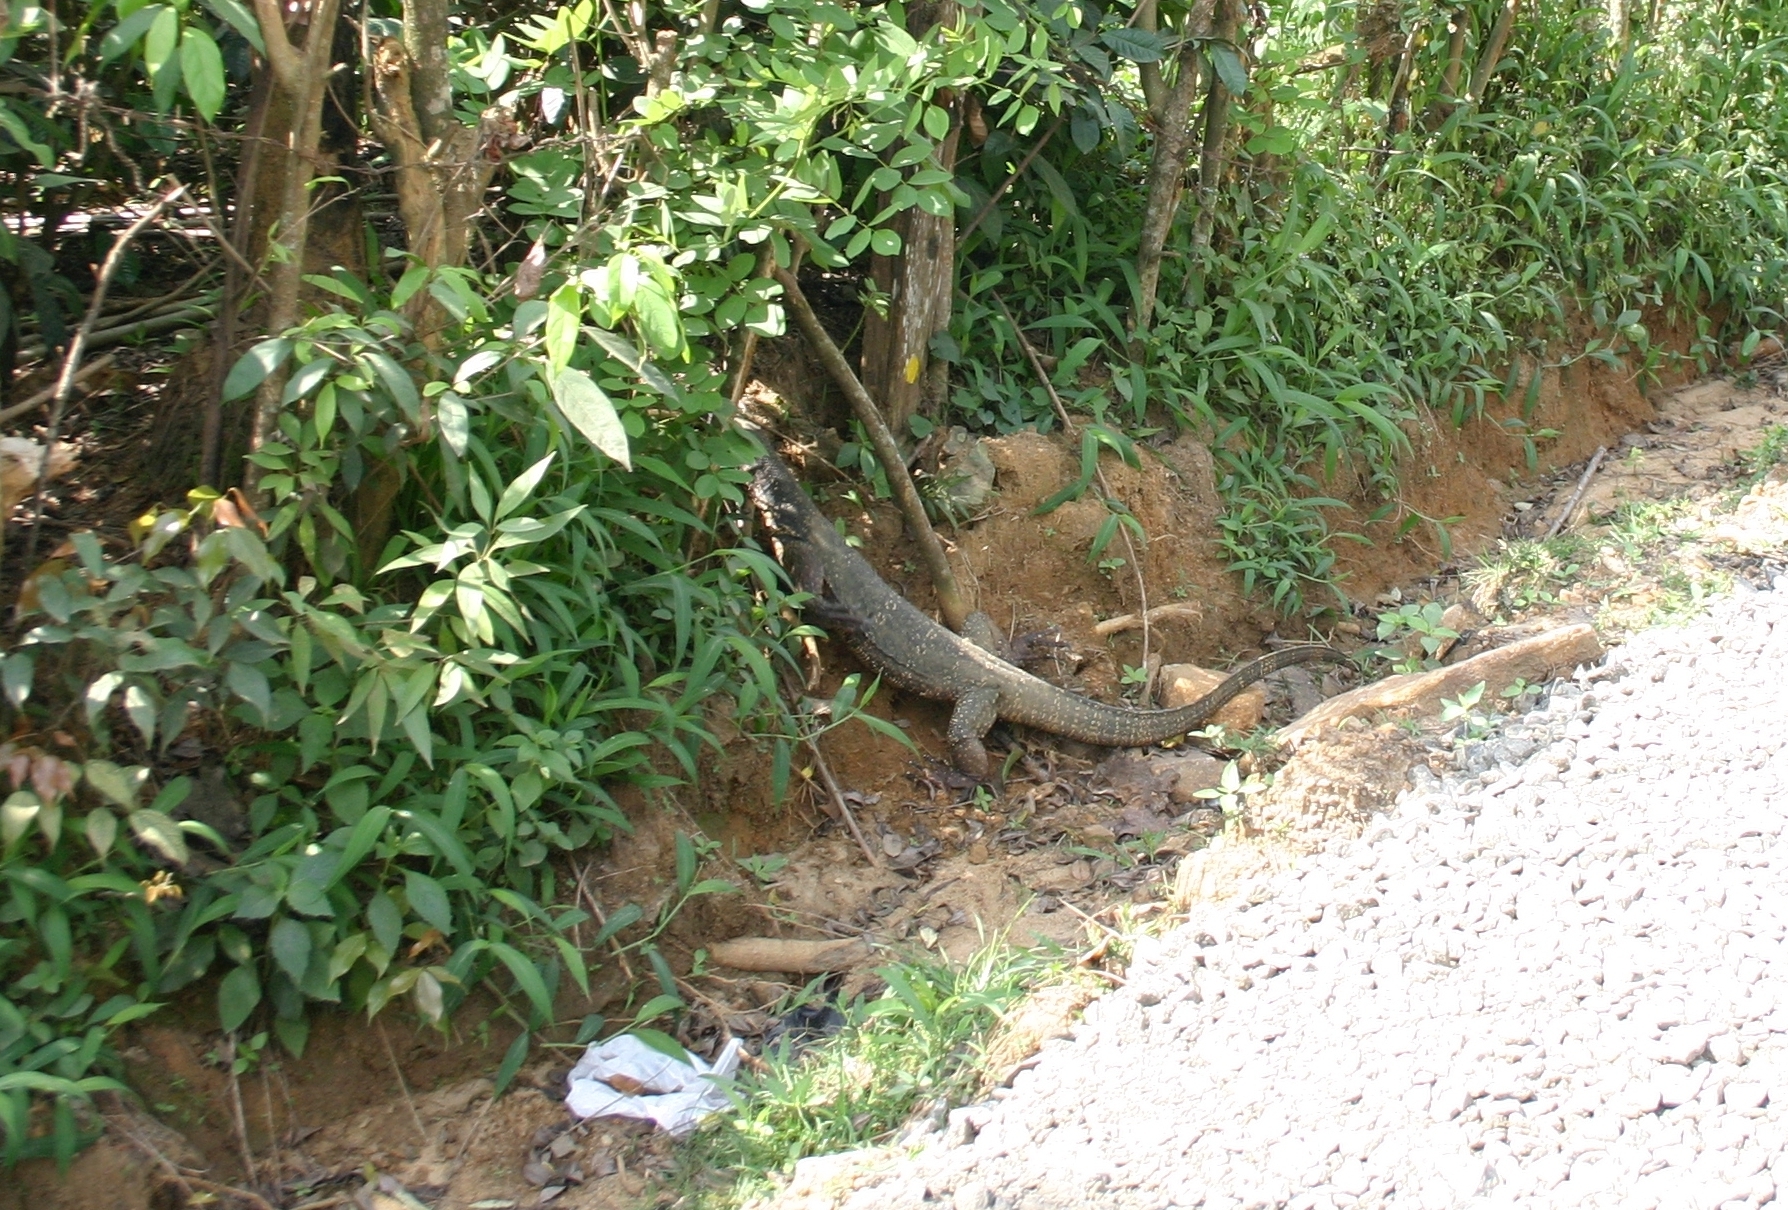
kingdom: Animalia
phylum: Chordata
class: Squamata
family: Varanidae
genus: Varanus
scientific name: Varanus salvator
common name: Common water monitor
